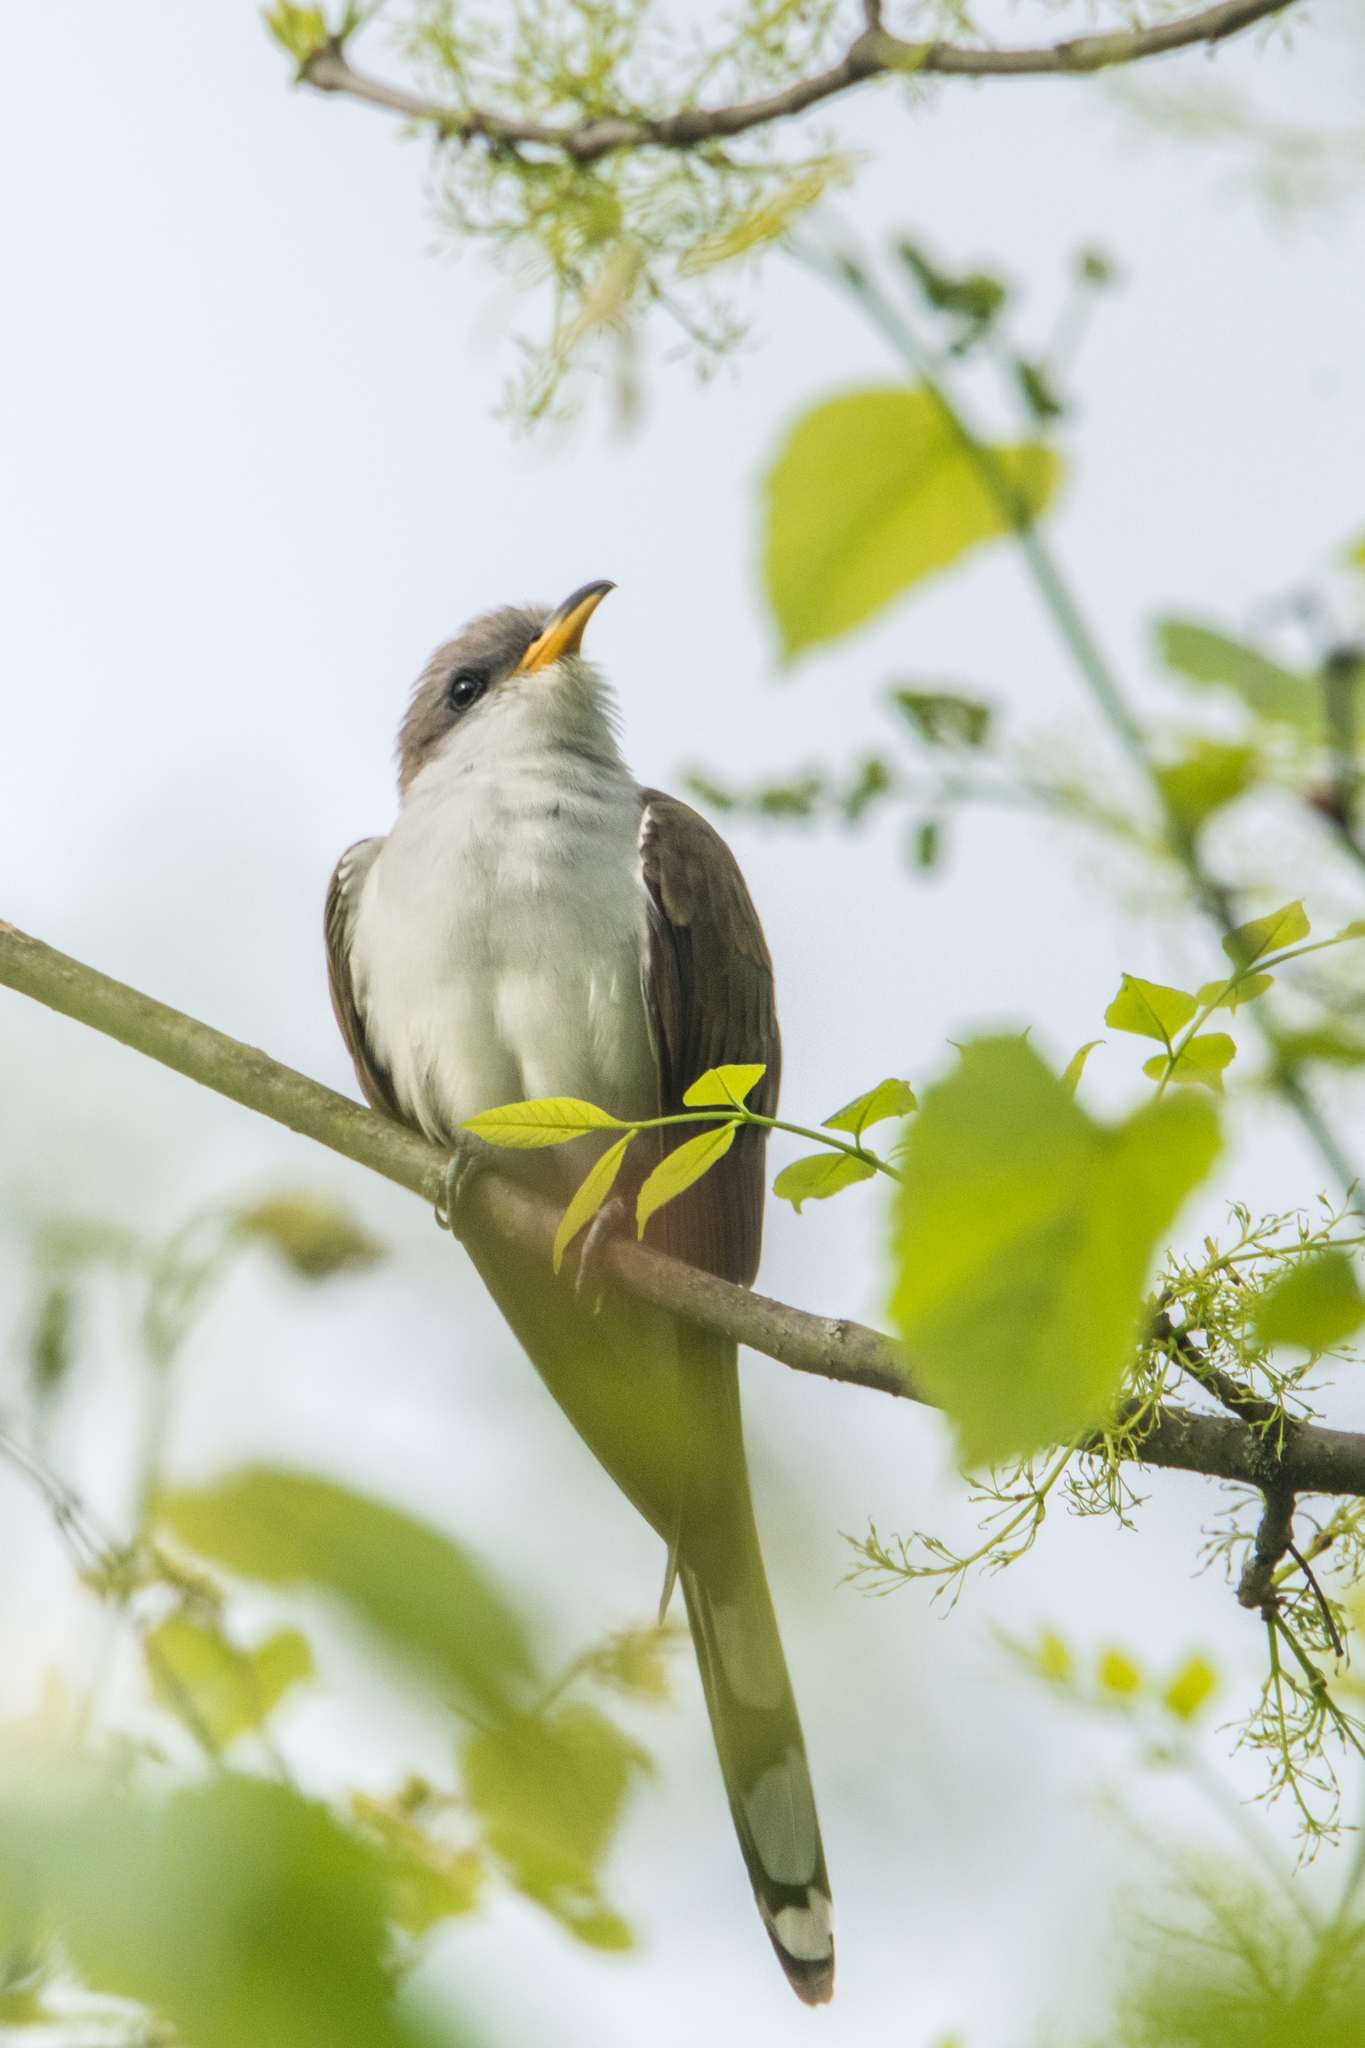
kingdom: Animalia
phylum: Chordata
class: Aves
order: Cuculiformes
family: Cuculidae
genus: Coccyzus
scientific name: Coccyzus americanus
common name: Yellow-billed cuckoo
